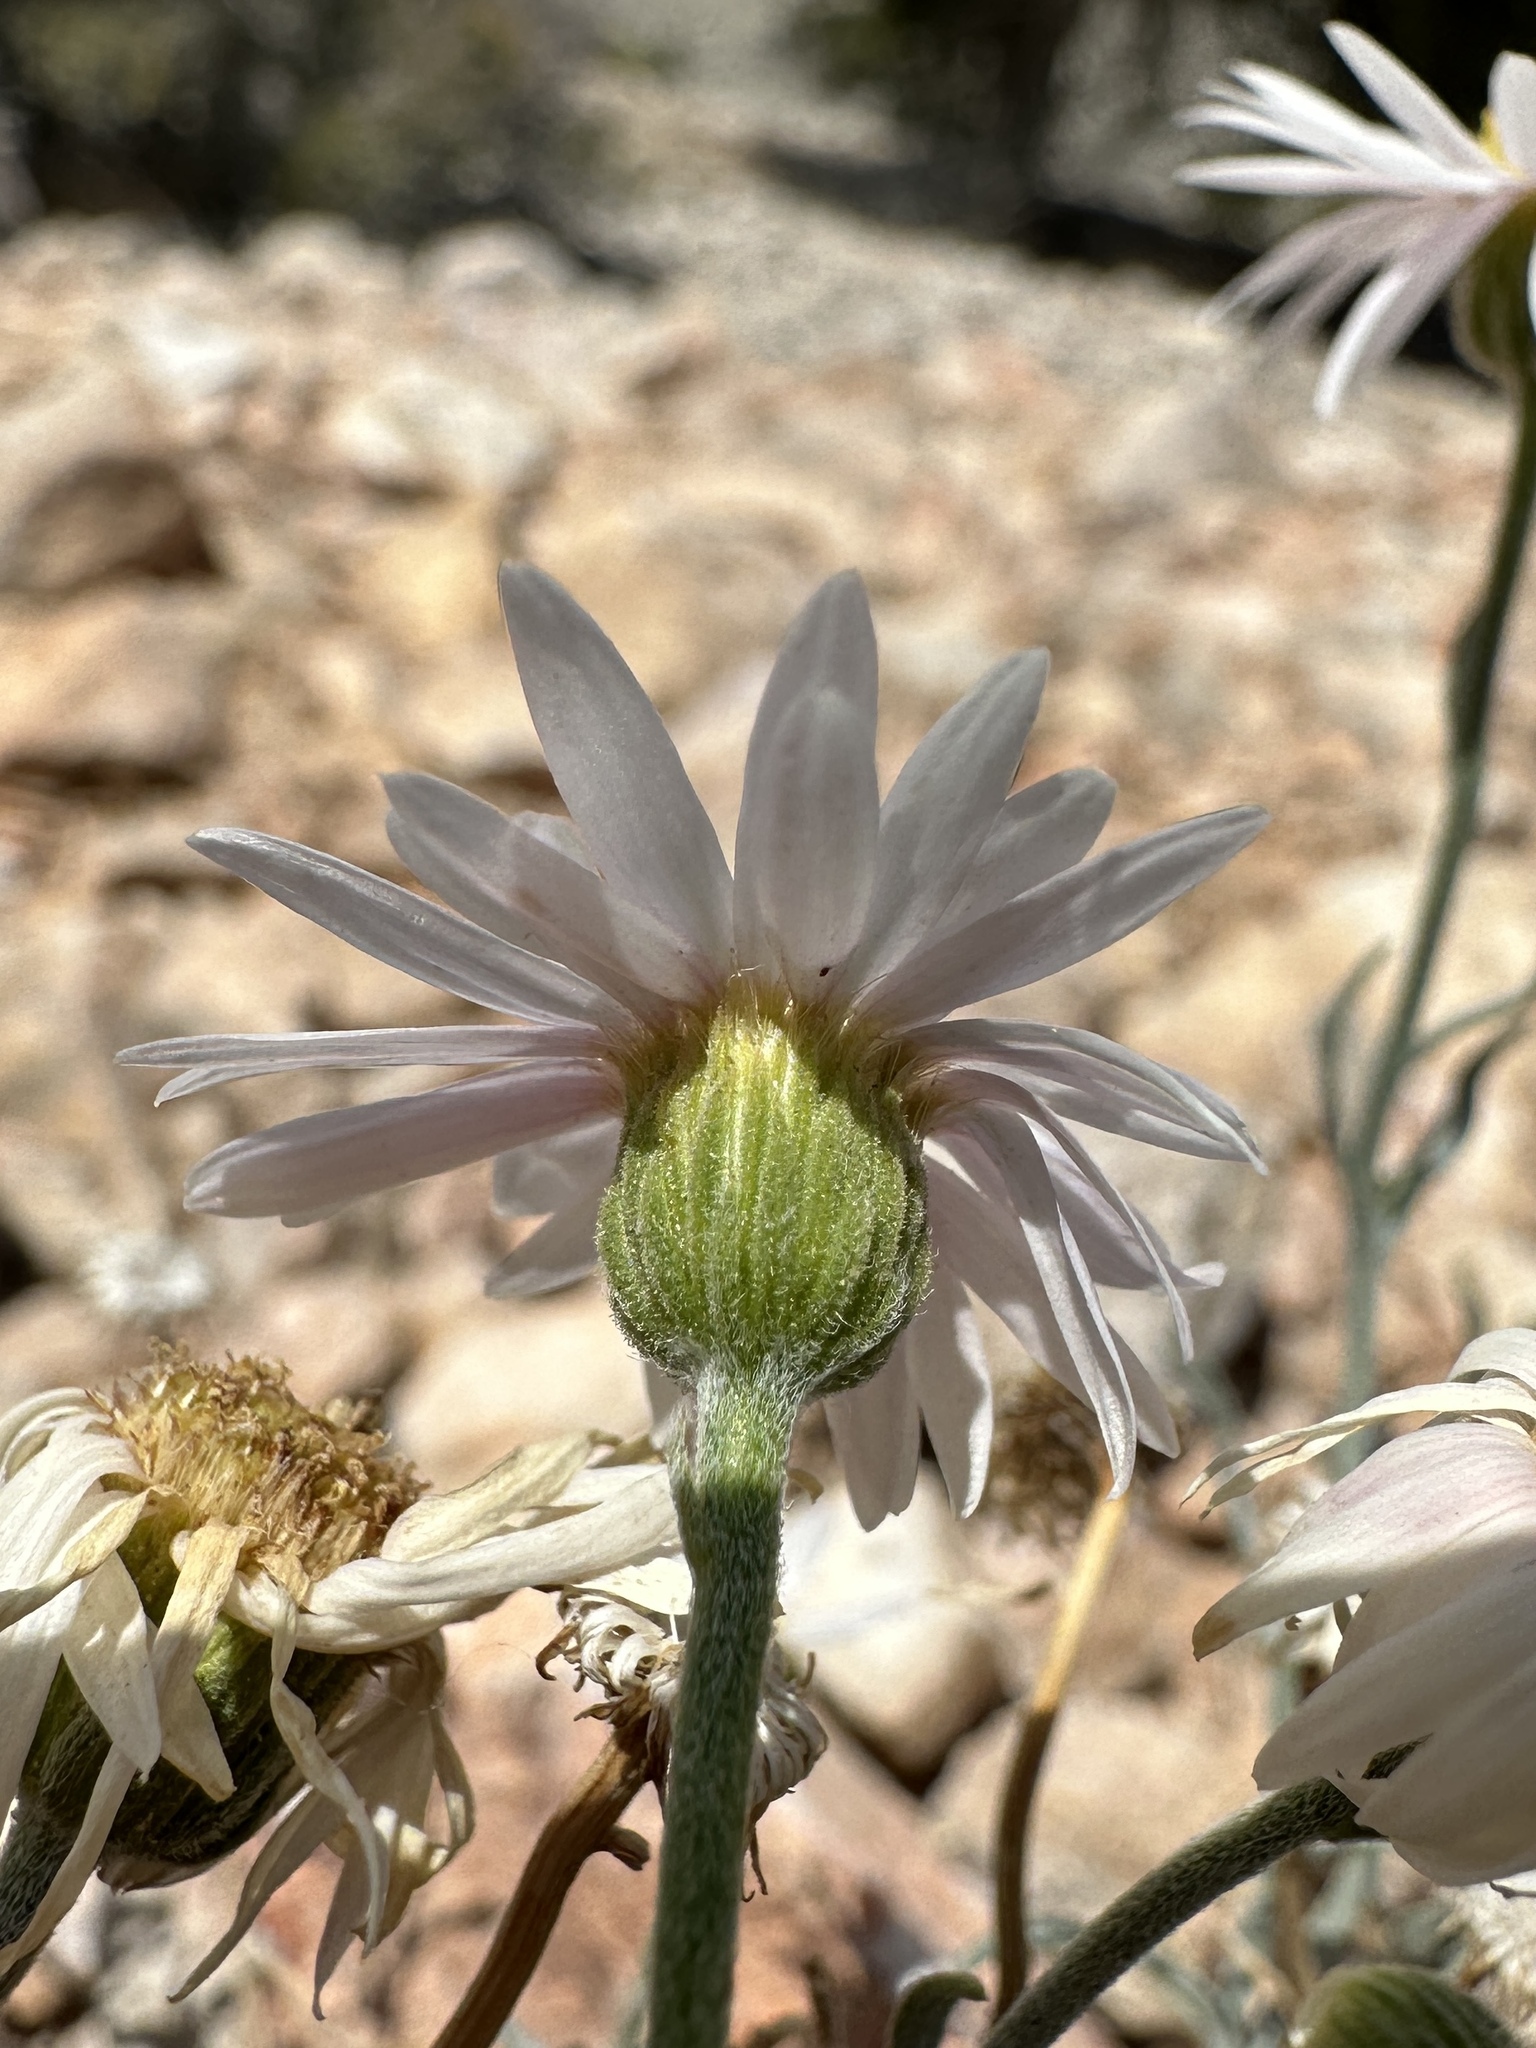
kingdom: Plantae
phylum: Tracheophyta
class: Magnoliopsida
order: Asterales
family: Asteraceae
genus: Erigeron
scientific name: Erigeron parishii
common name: Parish's daisy
